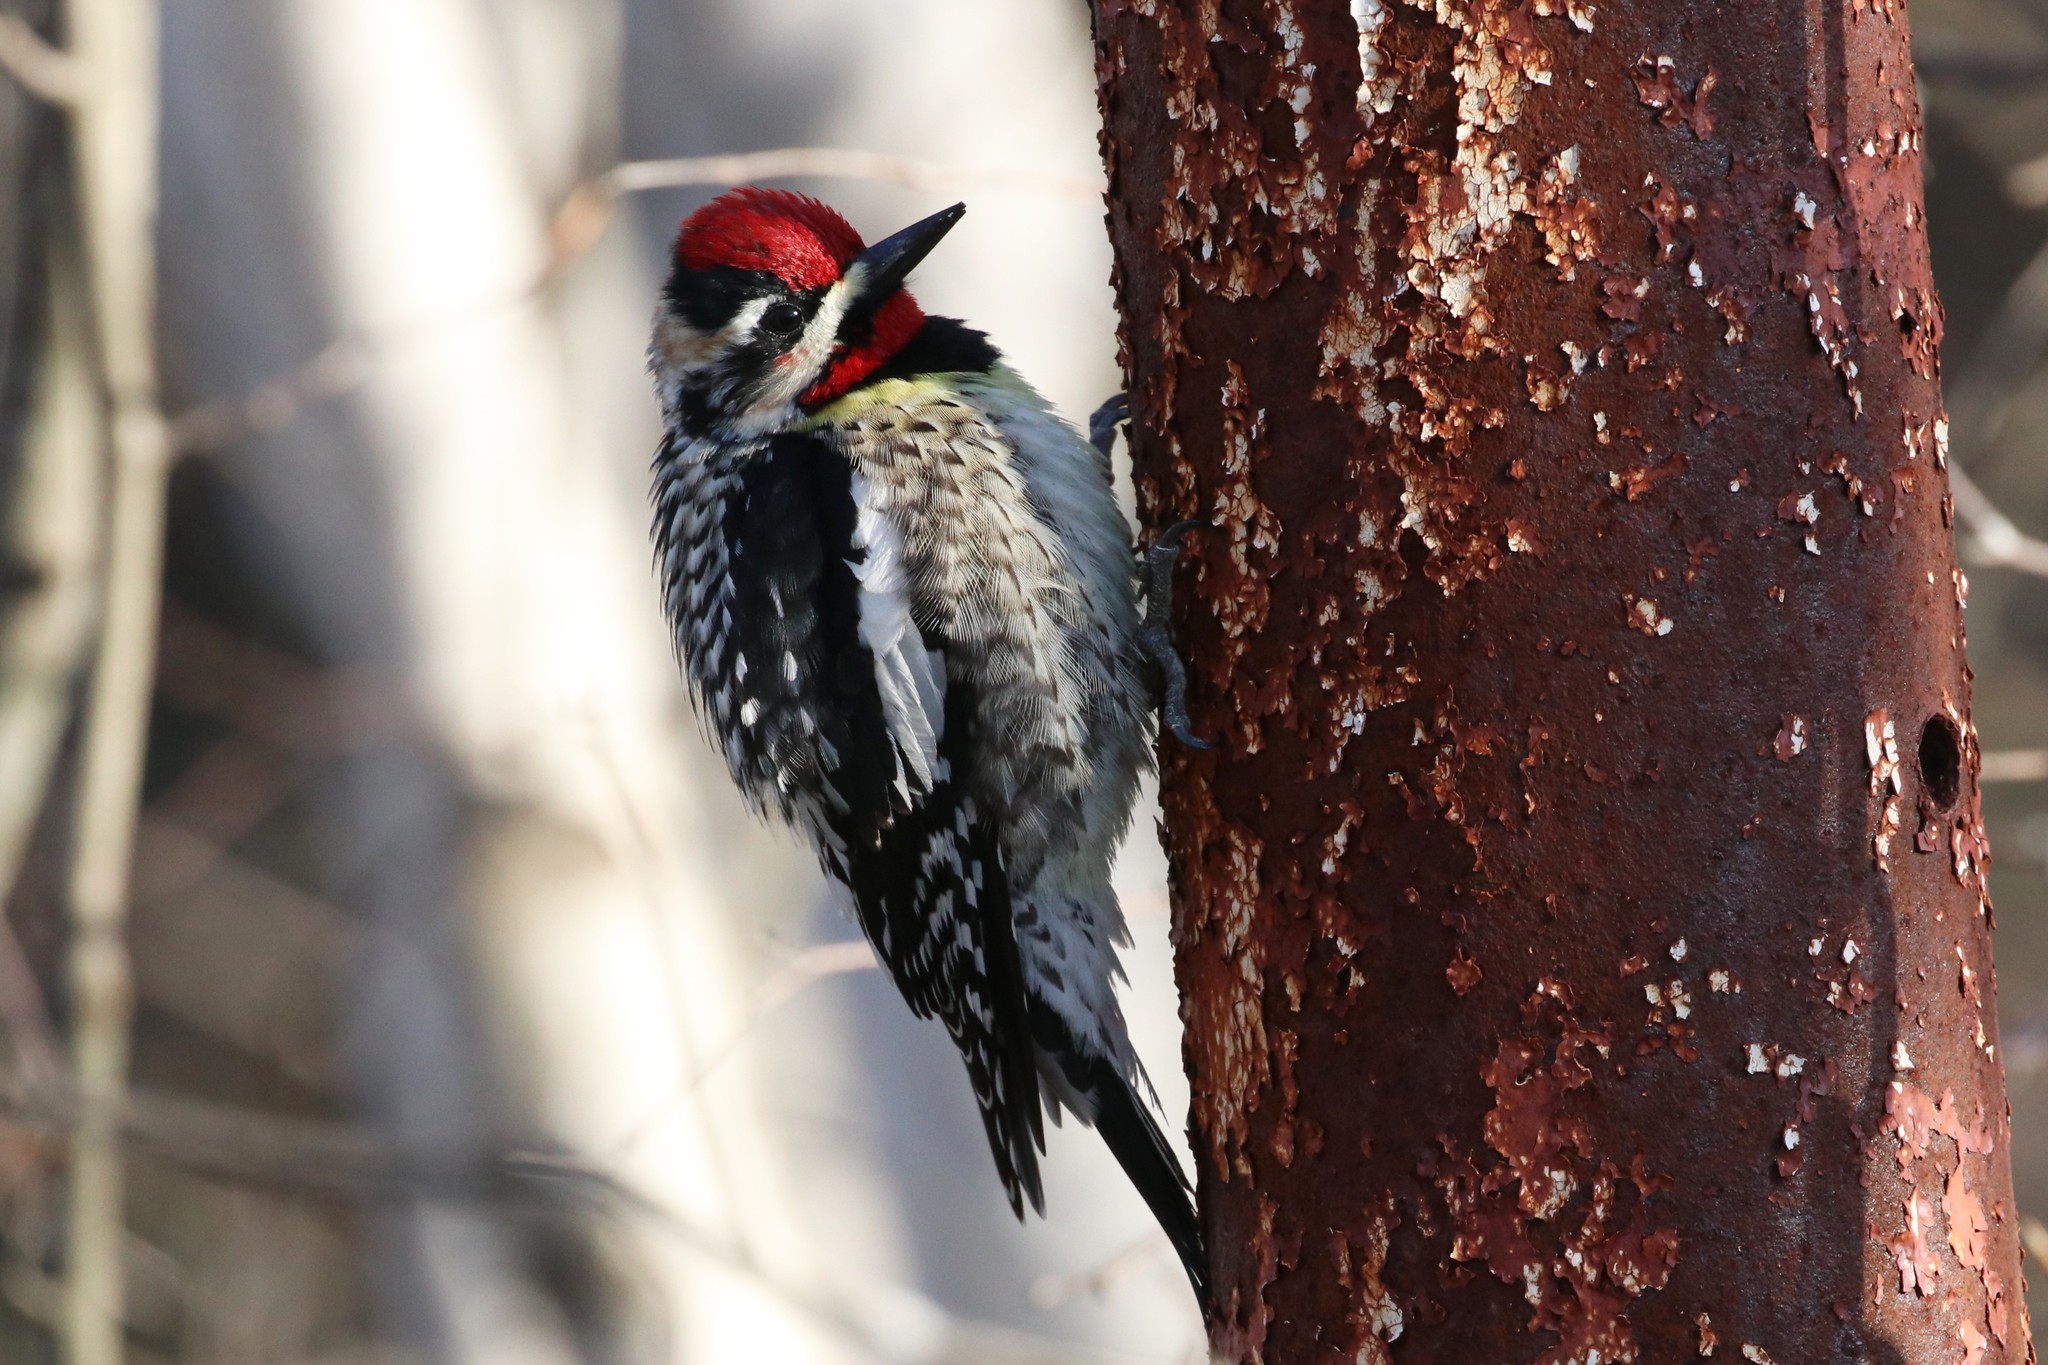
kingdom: Animalia
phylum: Chordata
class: Aves
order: Piciformes
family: Picidae
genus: Sphyrapicus
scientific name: Sphyrapicus varius
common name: Yellow-bellied sapsucker
